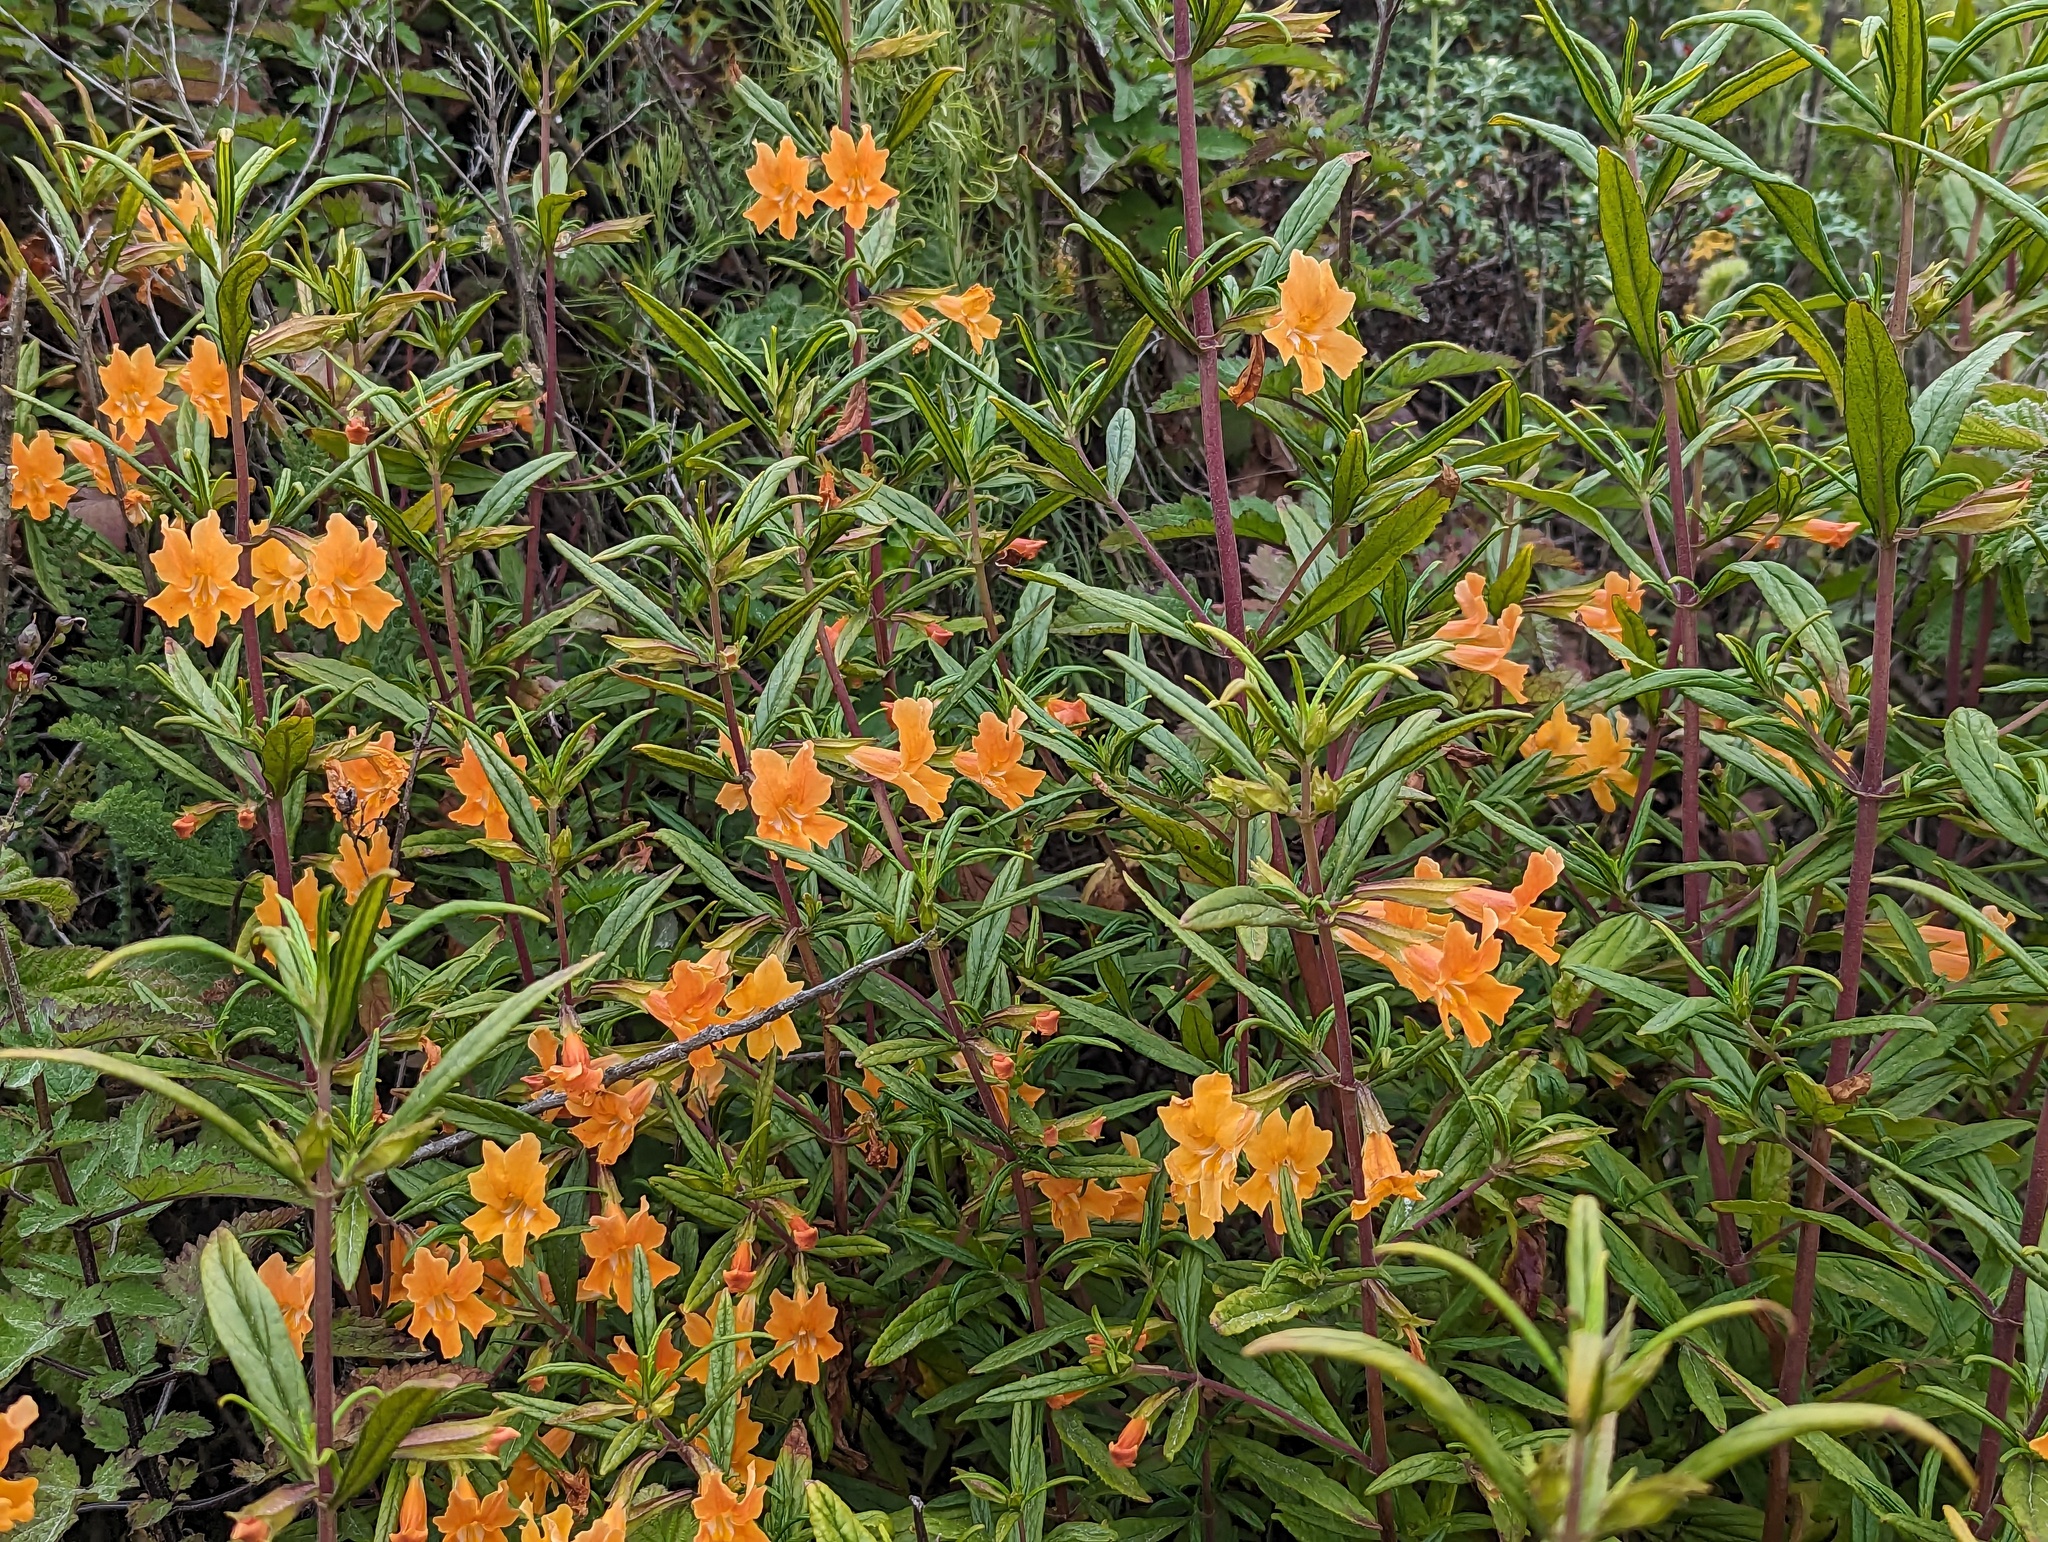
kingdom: Plantae
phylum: Tracheophyta
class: Magnoliopsida
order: Lamiales
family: Phrymaceae
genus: Diplacus
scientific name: Diplacus aurantiacus
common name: Bush monkey-flower
